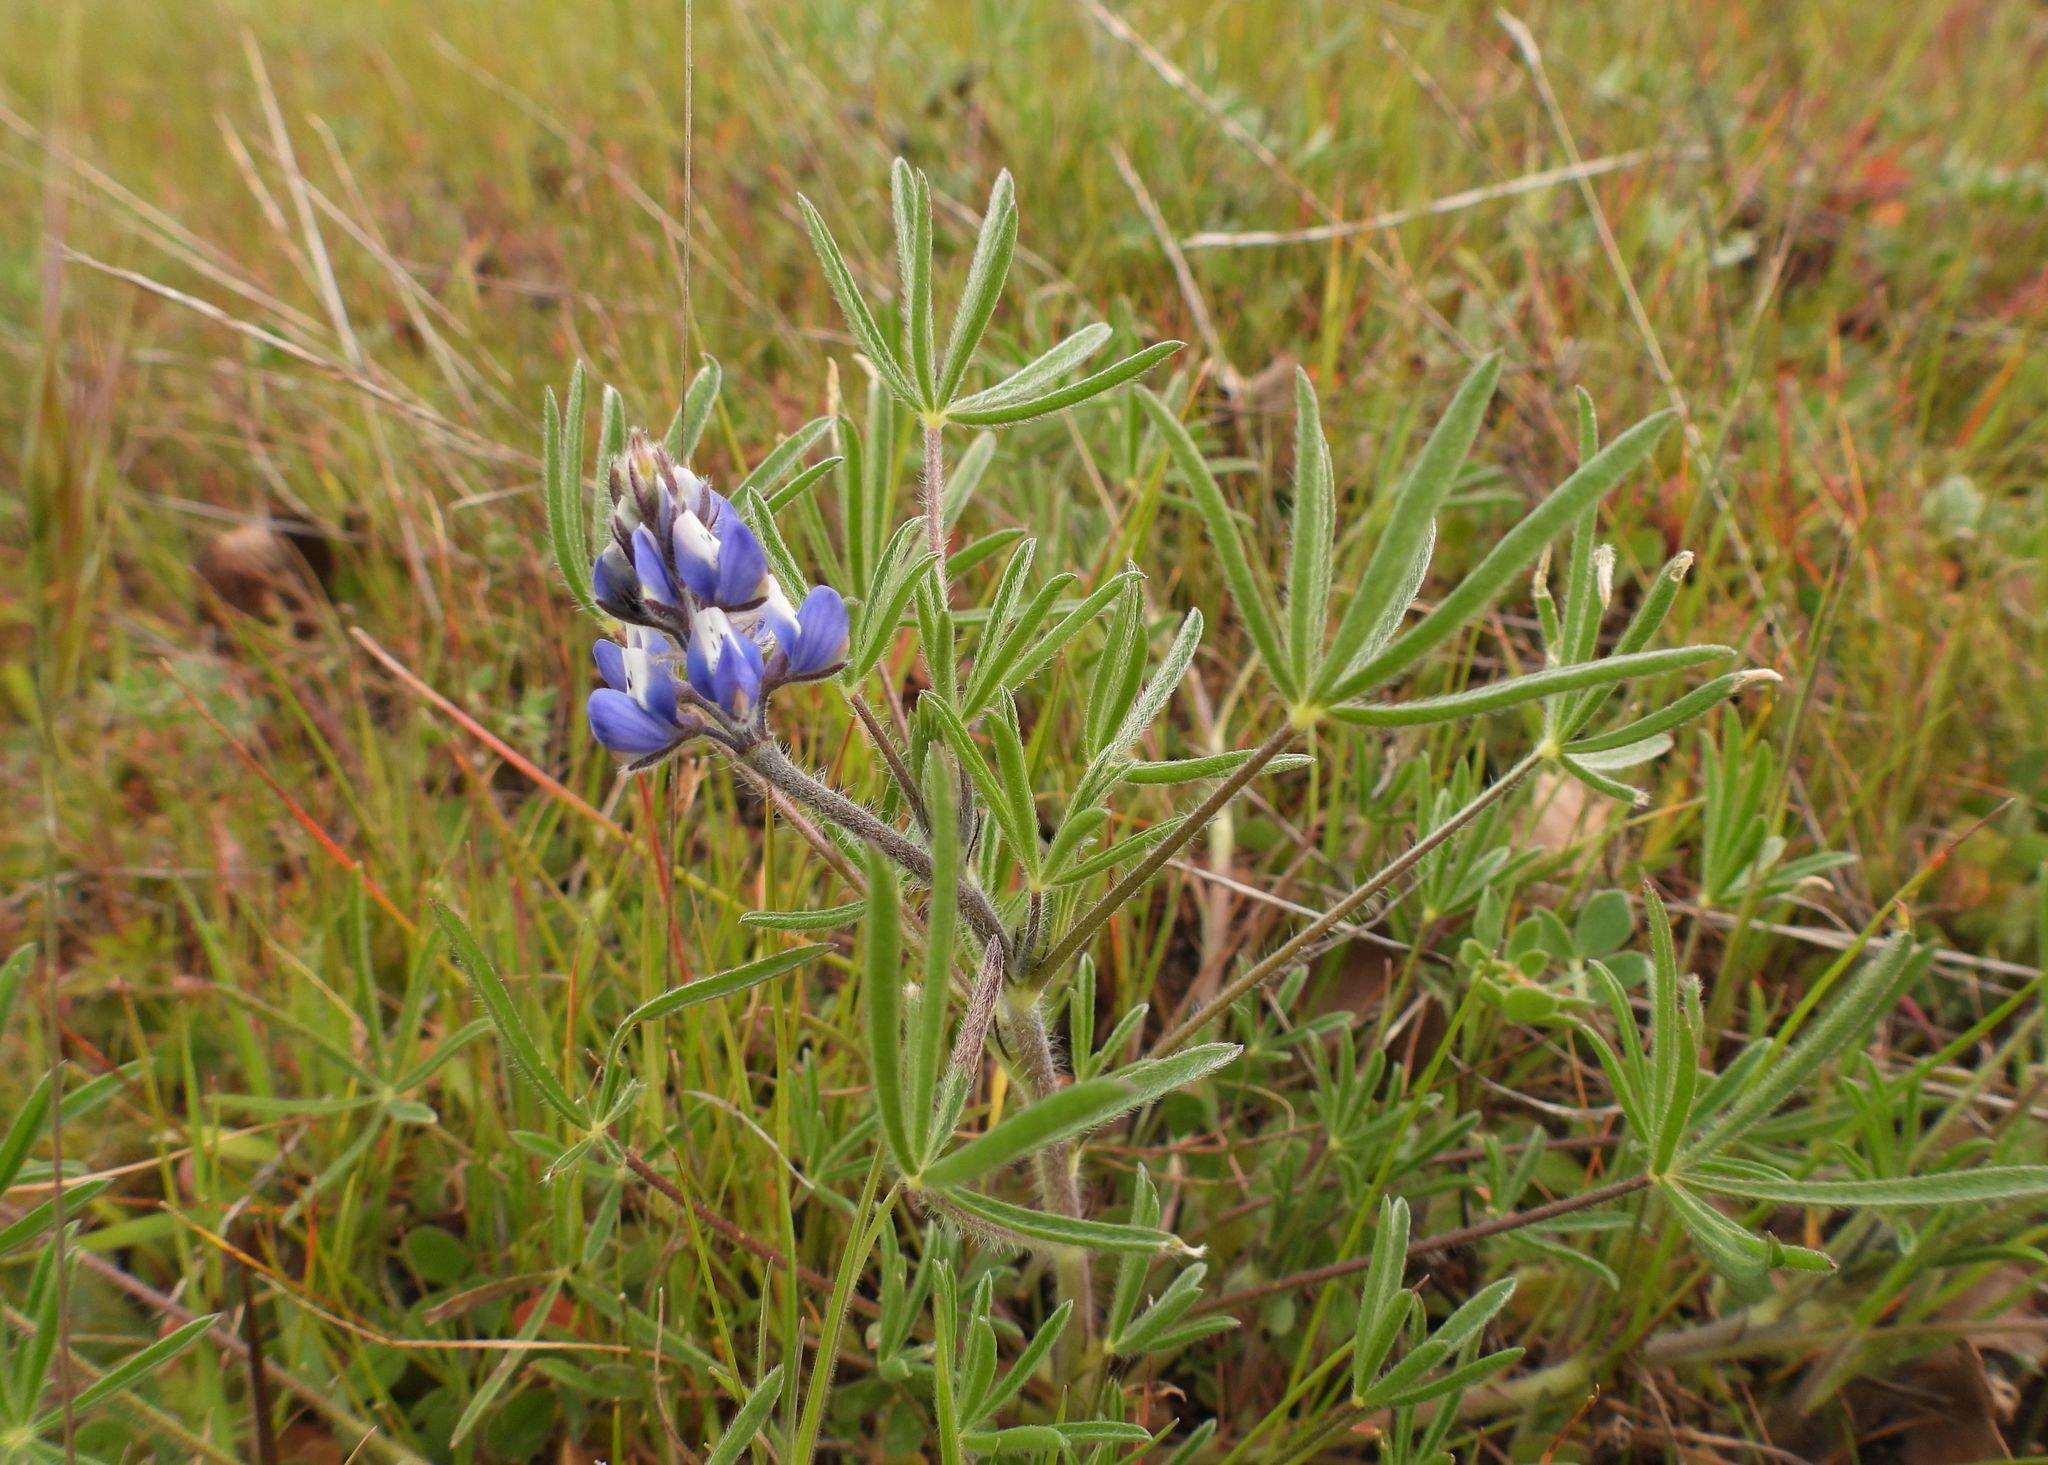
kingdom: Plantae
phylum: Tracheophyta
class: Magnoliopsida
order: Fabales
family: Fabaceae
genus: Lupinus
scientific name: Lupinus bicolor
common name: Miniature lupine
